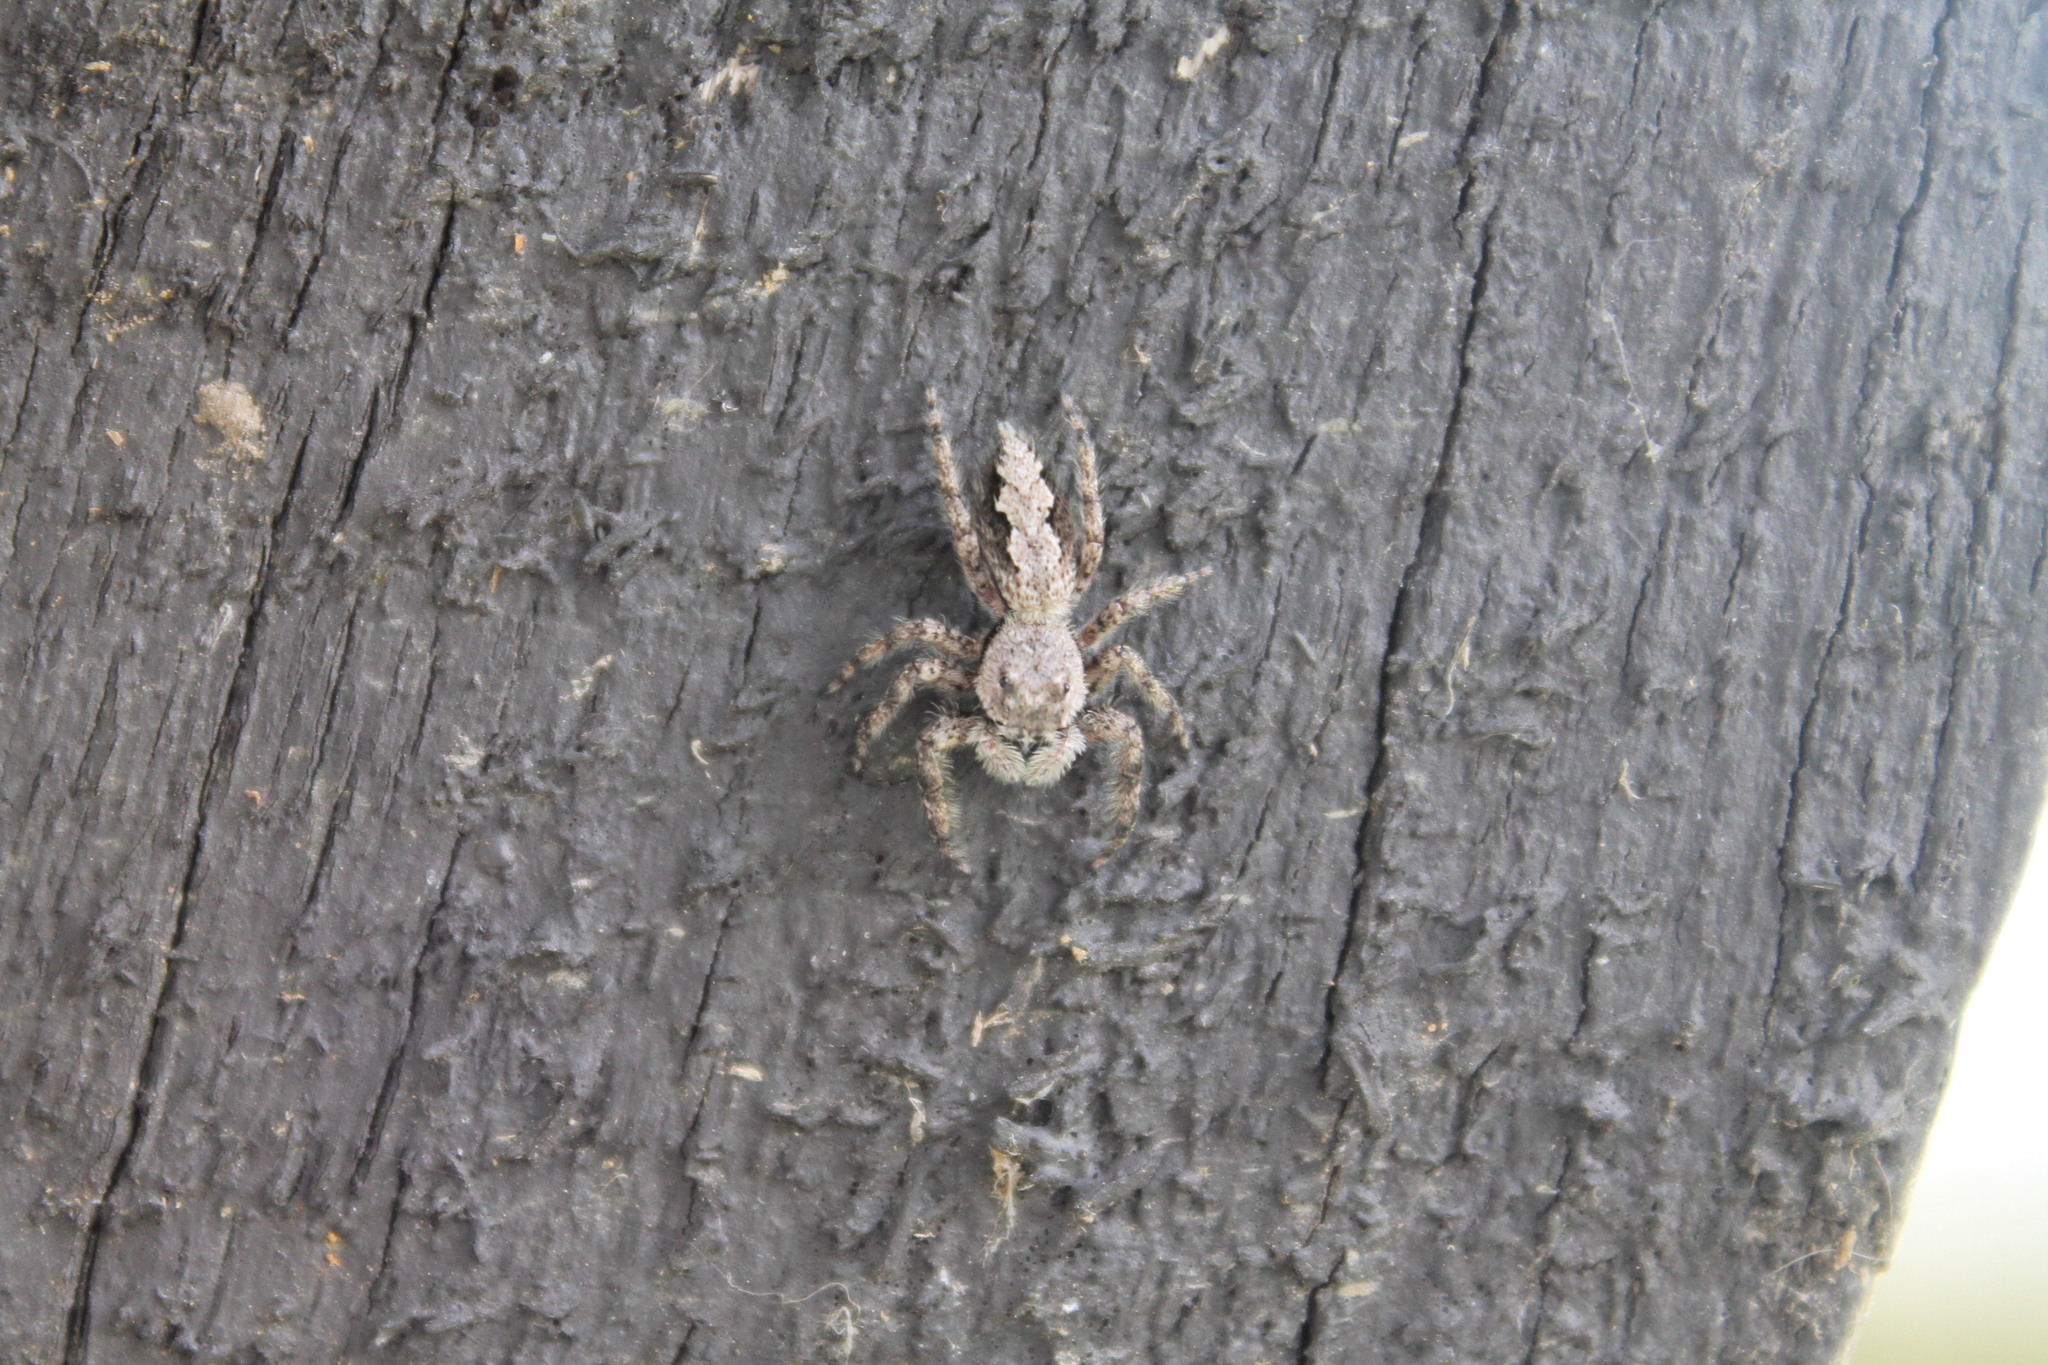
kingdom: Animalia
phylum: Arthropoda
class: Arachnida
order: Araneae
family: Salticidae
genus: Platycryptus
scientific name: Platycryptus undatus
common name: Tan jumping spider
